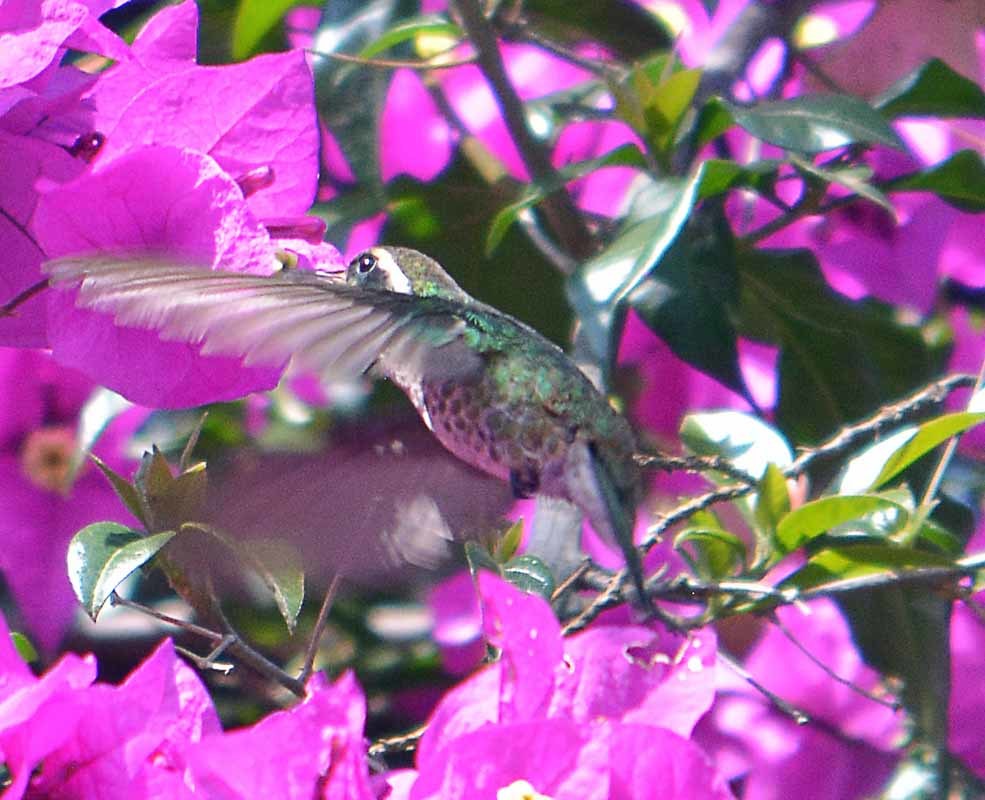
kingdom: Animalia
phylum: Chordata
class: Aves
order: Apodiformes
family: Trochilidae
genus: Basilinna
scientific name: Basilinna leucotis
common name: White-eared hummingbird
